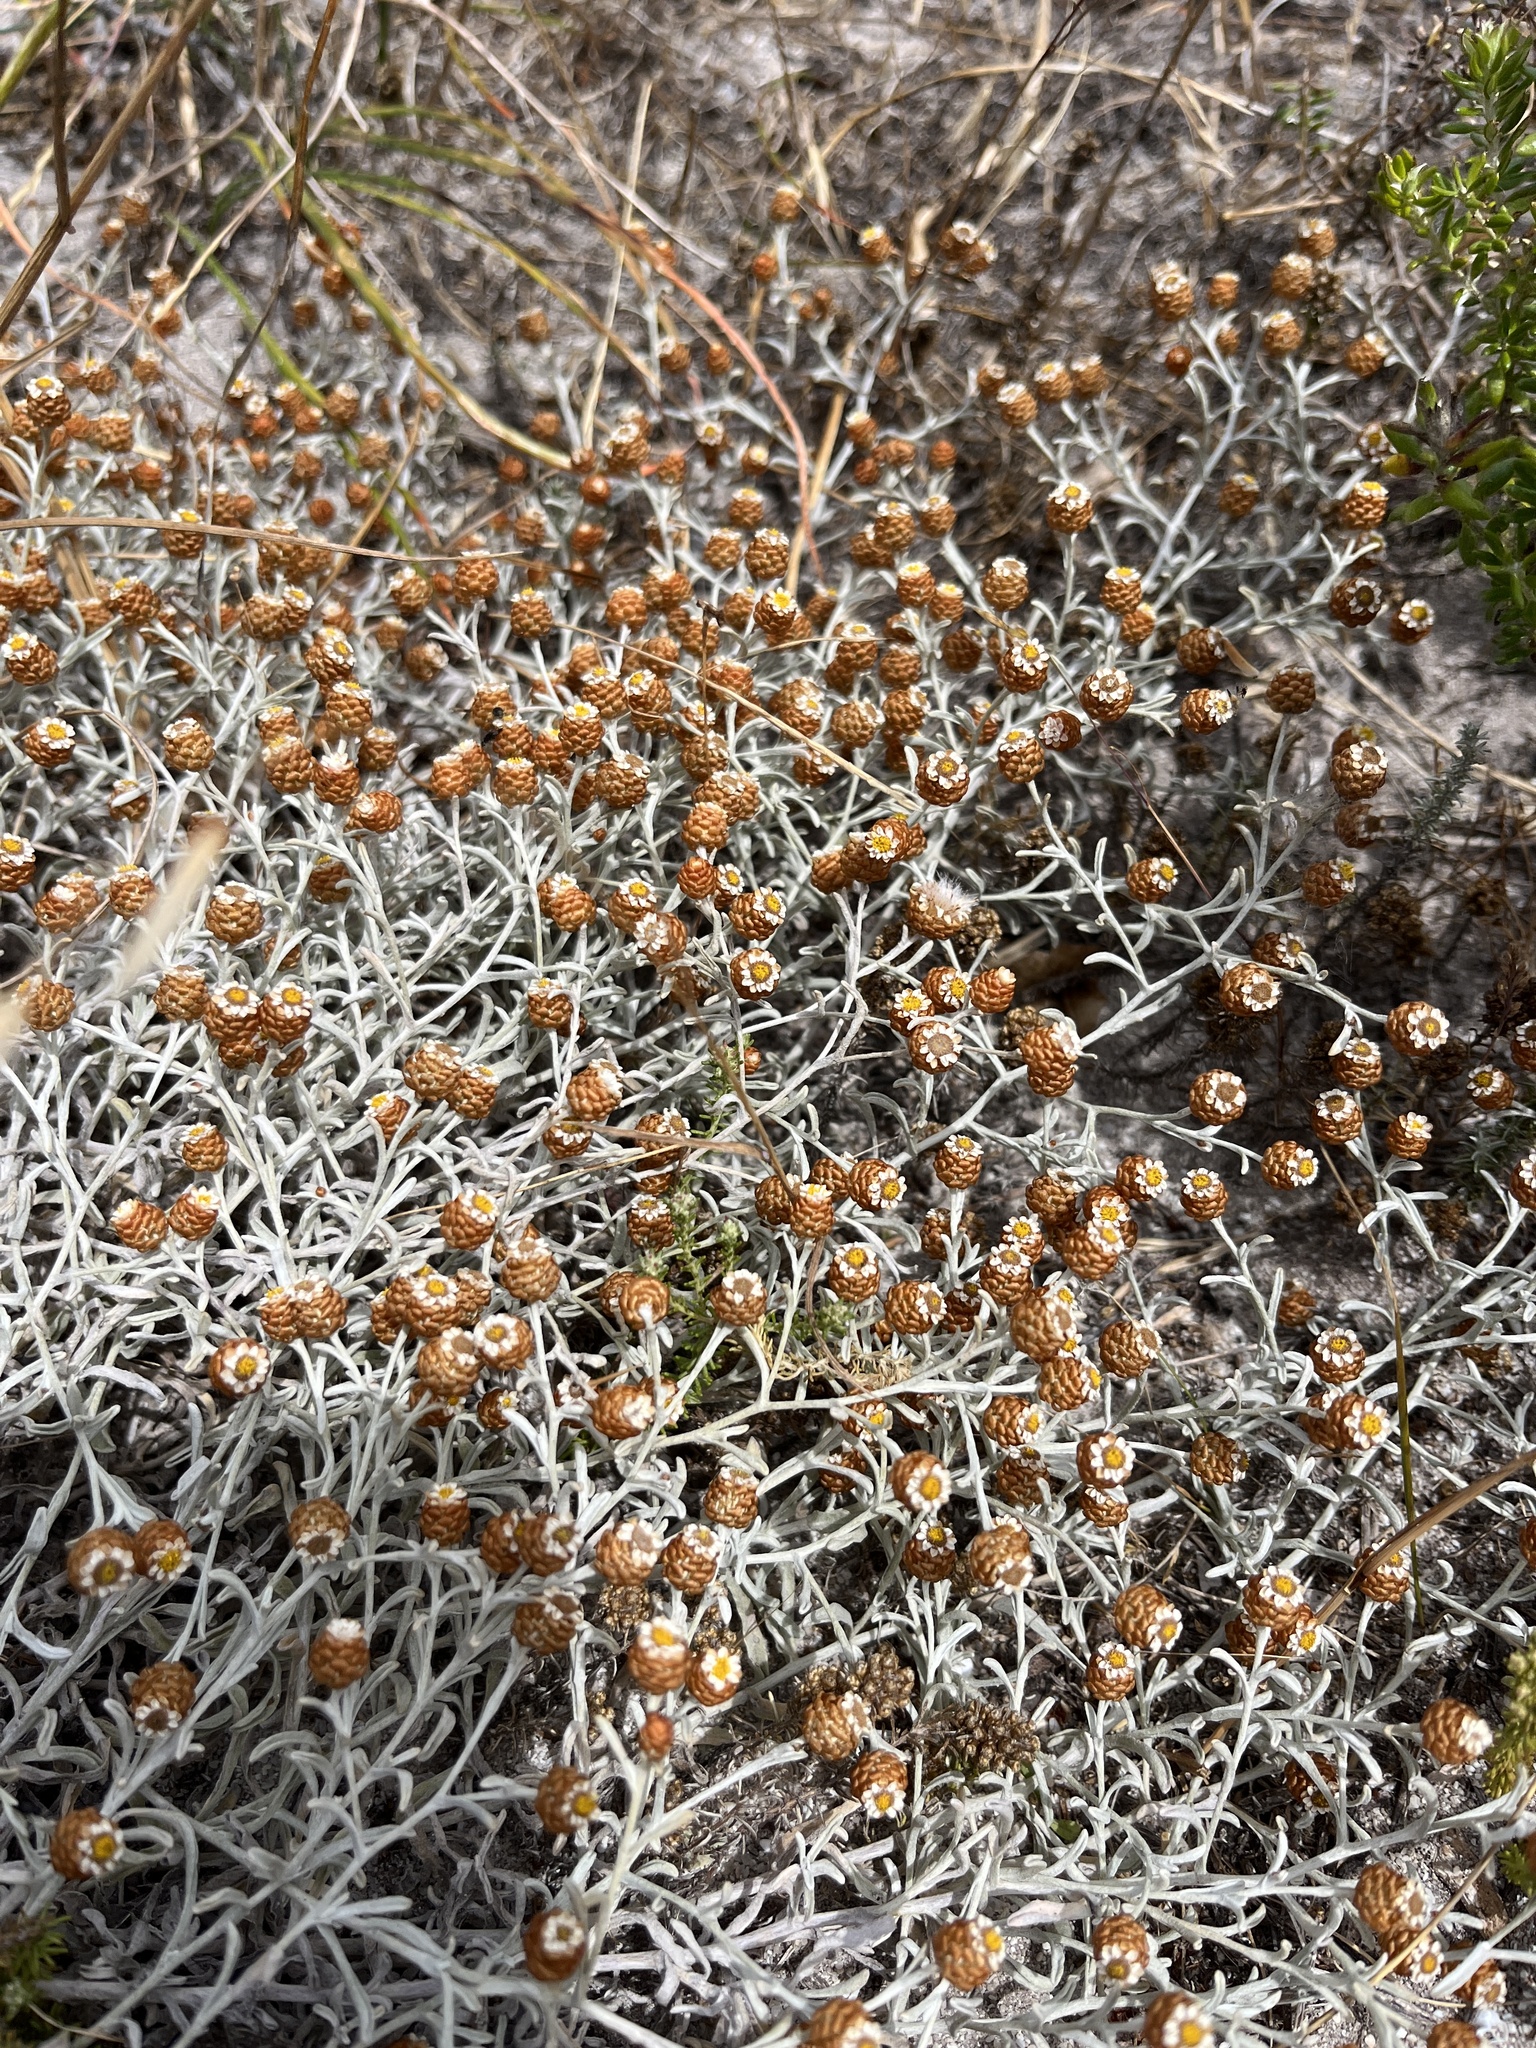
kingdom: Plantae
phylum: Tracheophyta
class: Magnoliopsida
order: Asterales
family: Asteraceae
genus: Helichrysum
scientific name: Helichrysum cochleariforme
